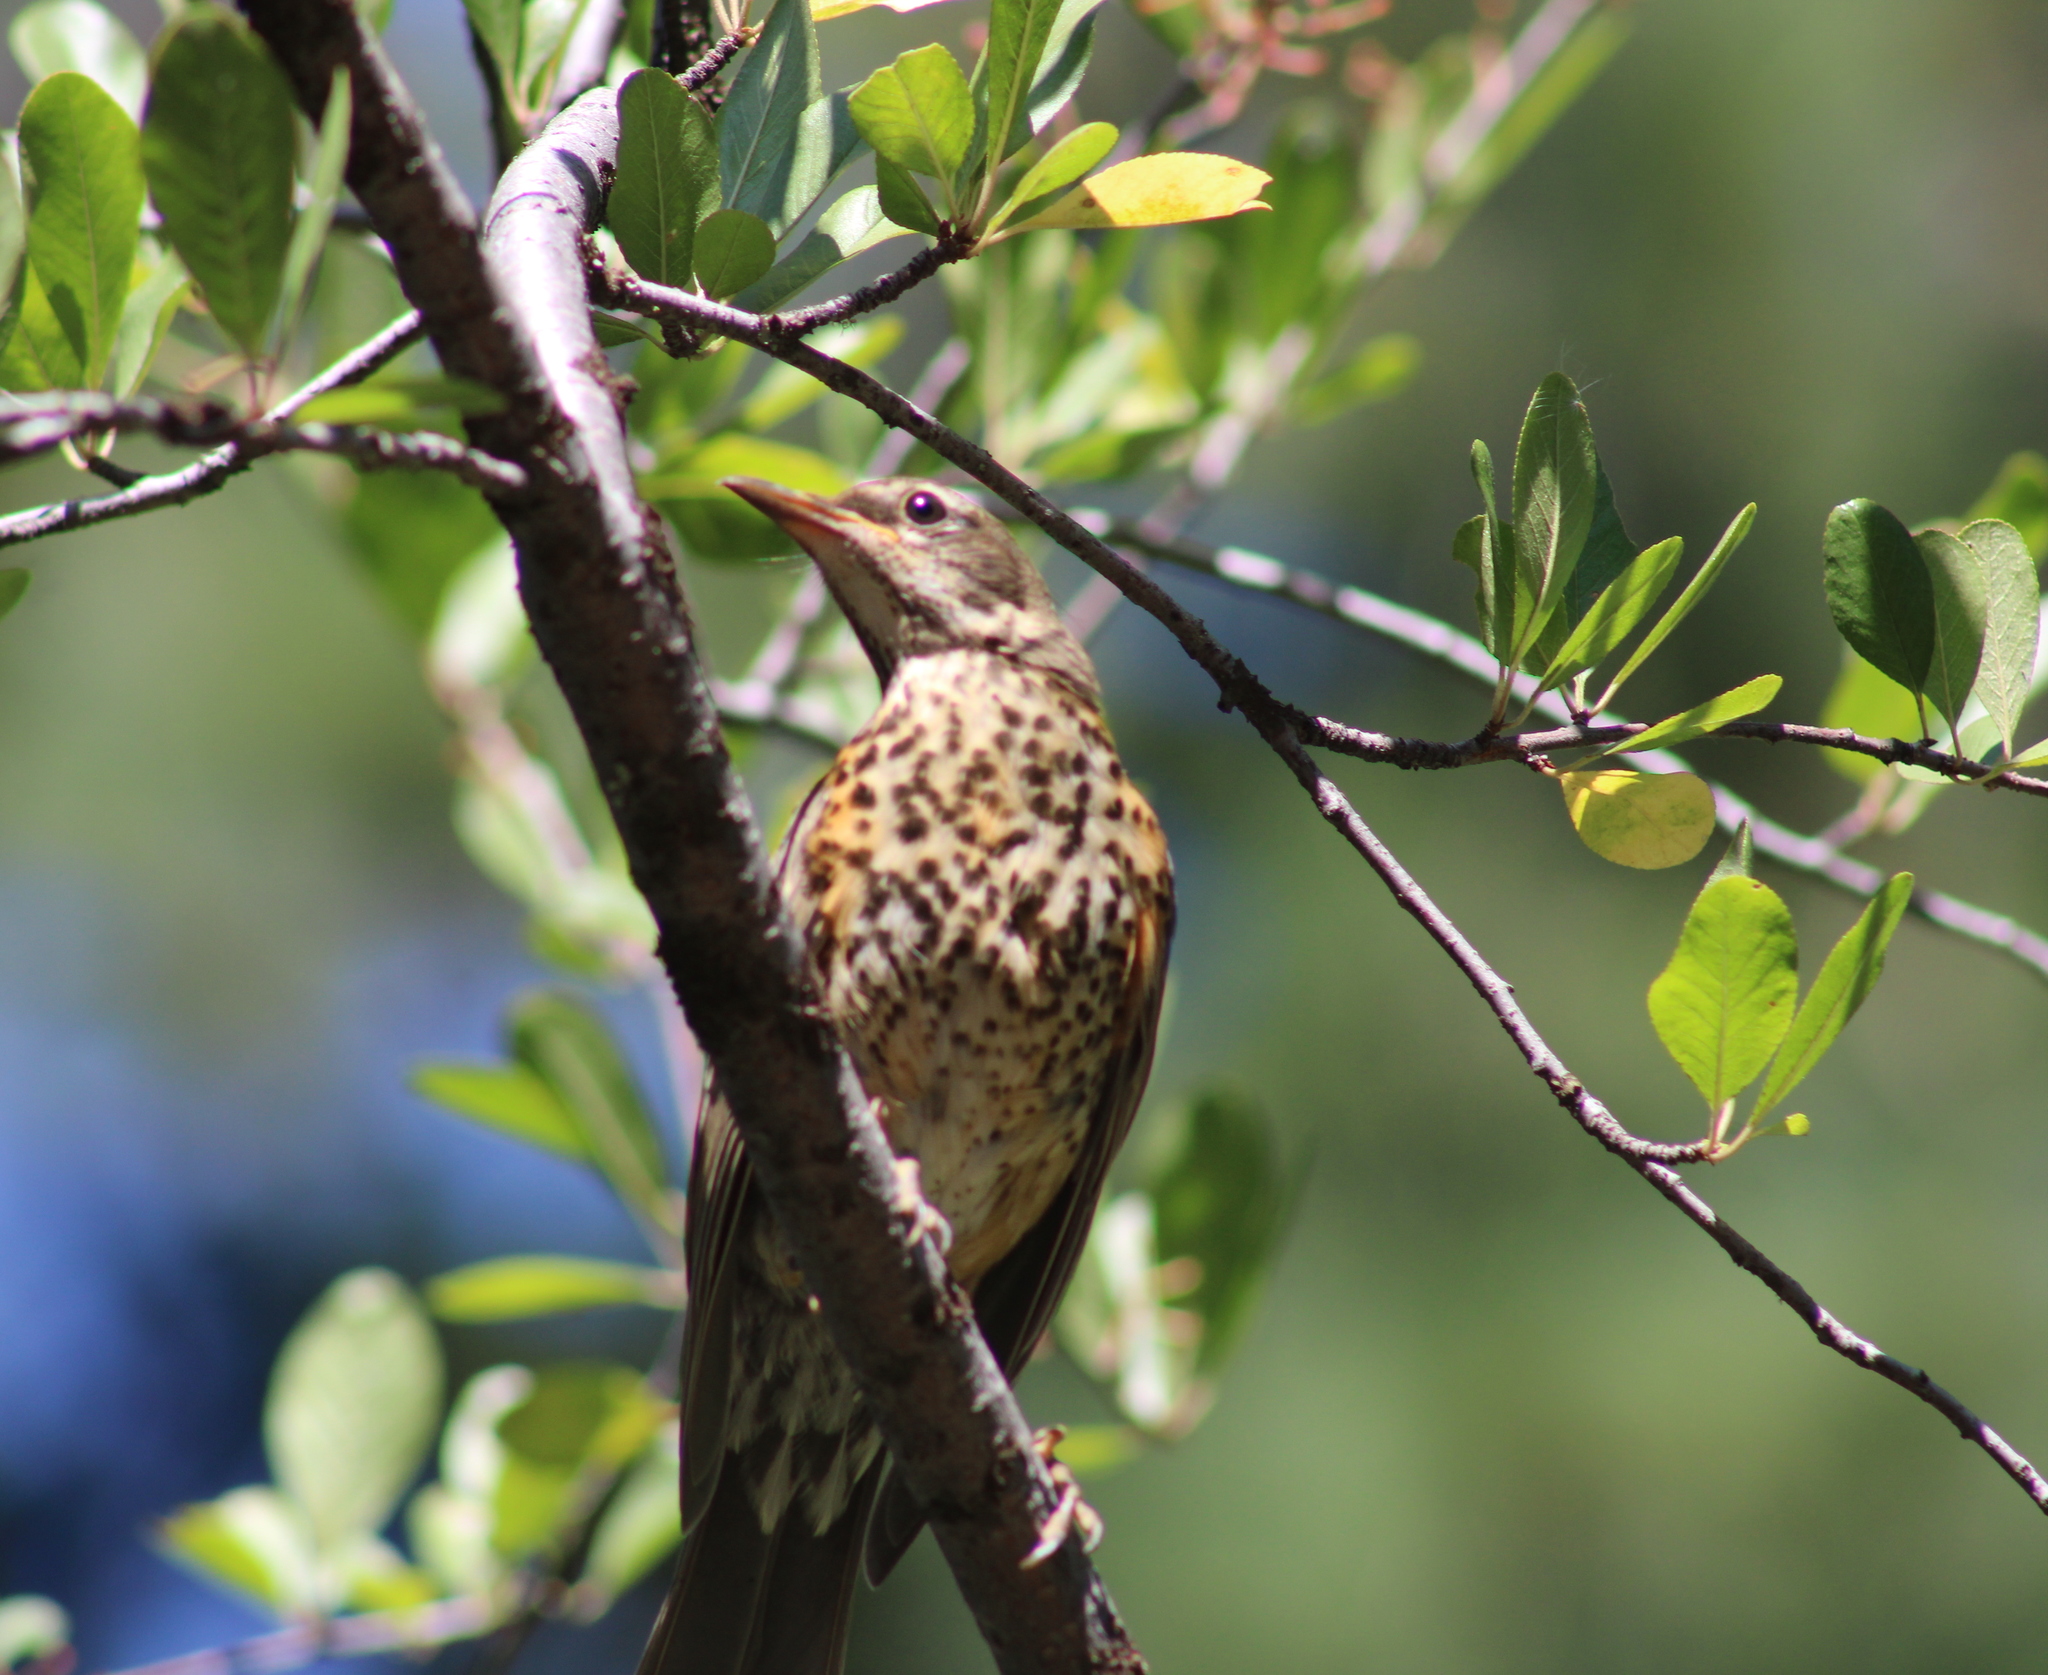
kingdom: Animalia
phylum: Chordata
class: Aves
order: Passeriformes
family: Turdidae
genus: Turdus
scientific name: Turdus migratorius
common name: American robin
